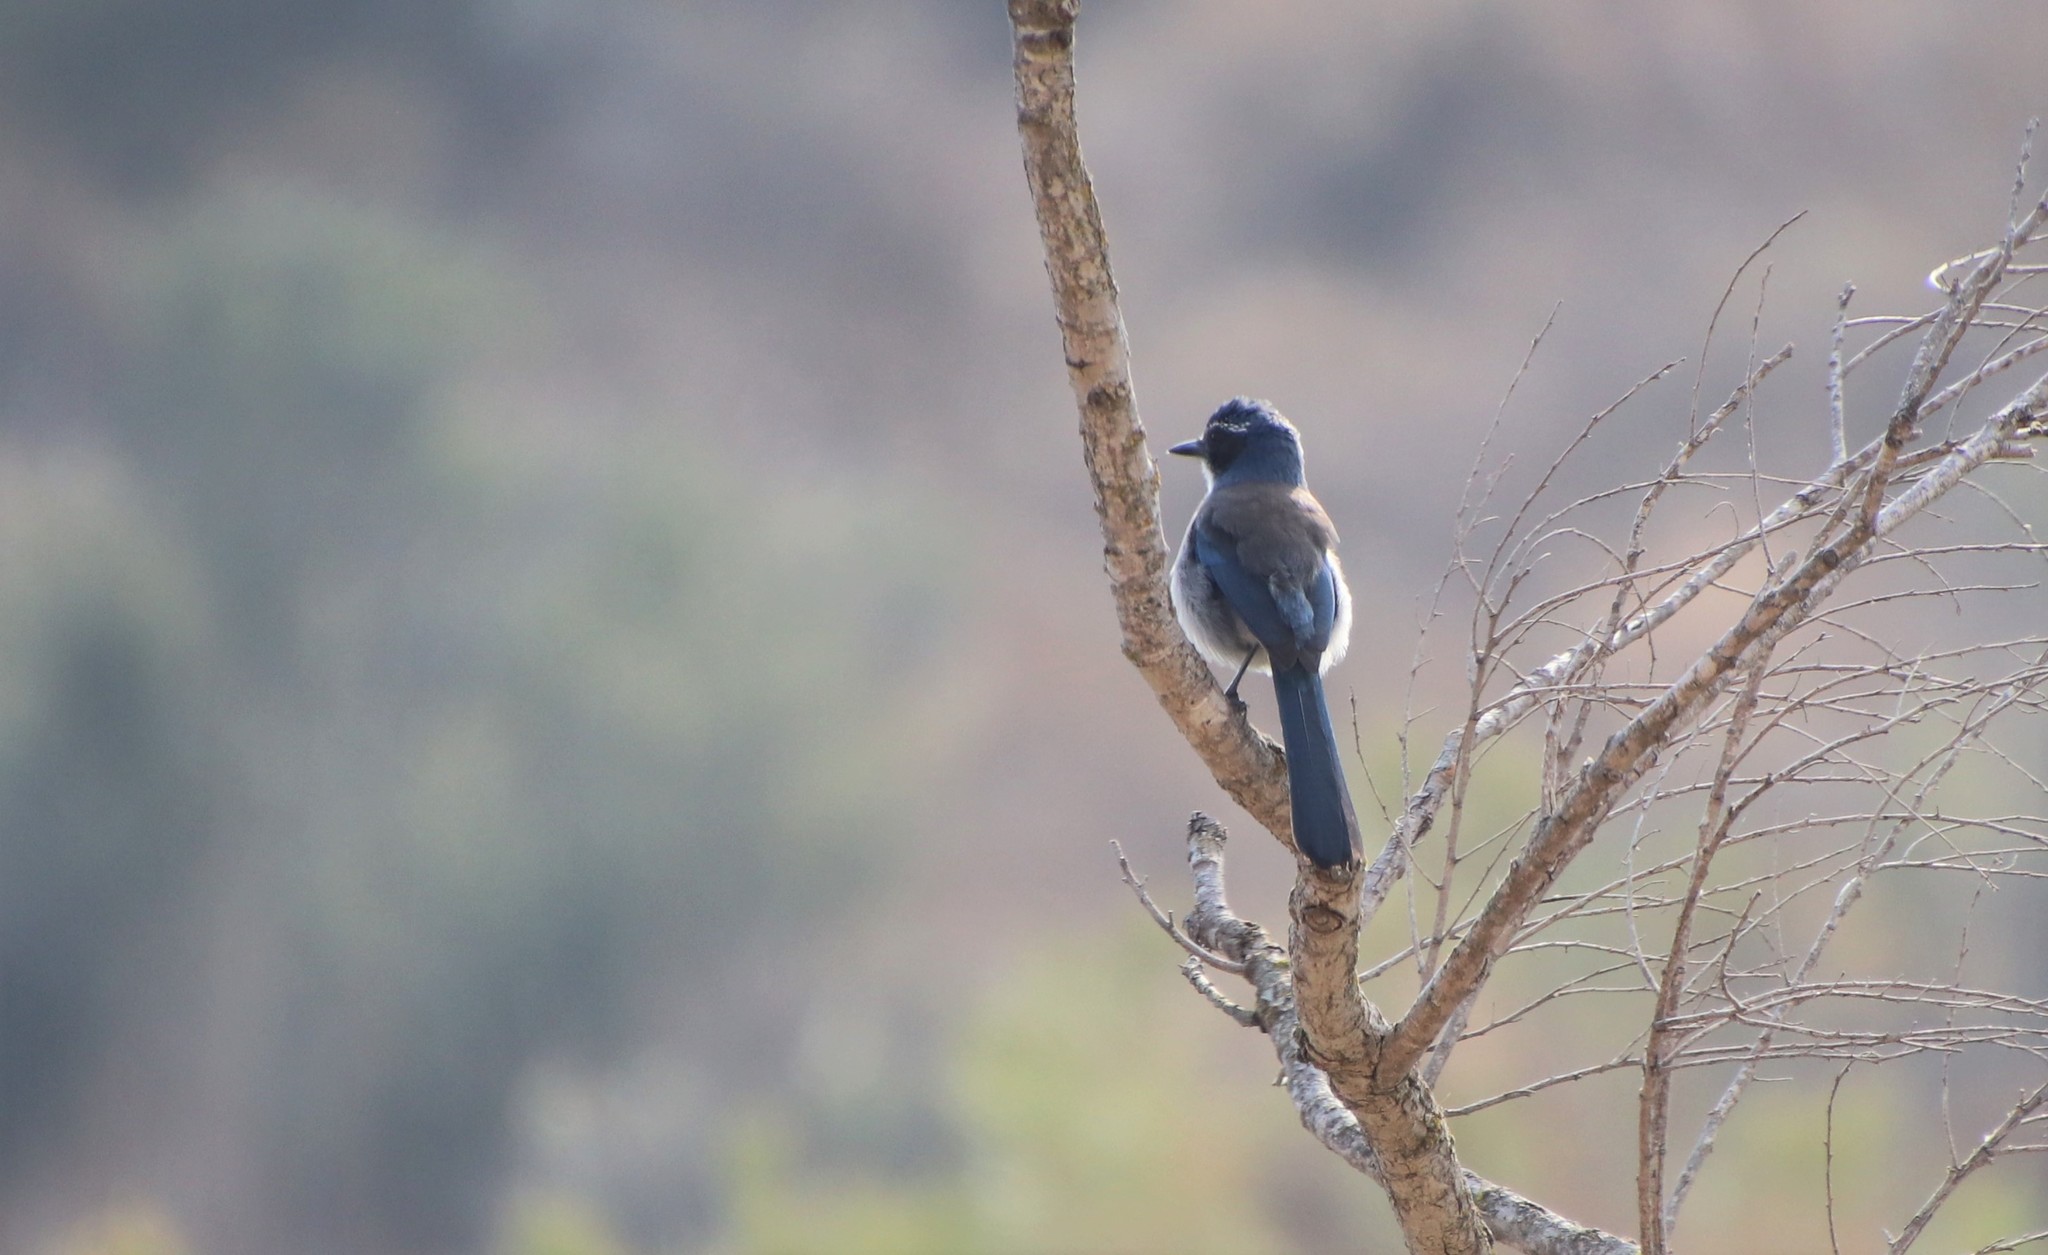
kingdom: Animalia
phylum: Chordata
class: Aves
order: Passeriformes
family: Corvidae
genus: Aphelocoma
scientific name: Aphelocoma californica
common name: California scrub-jay
